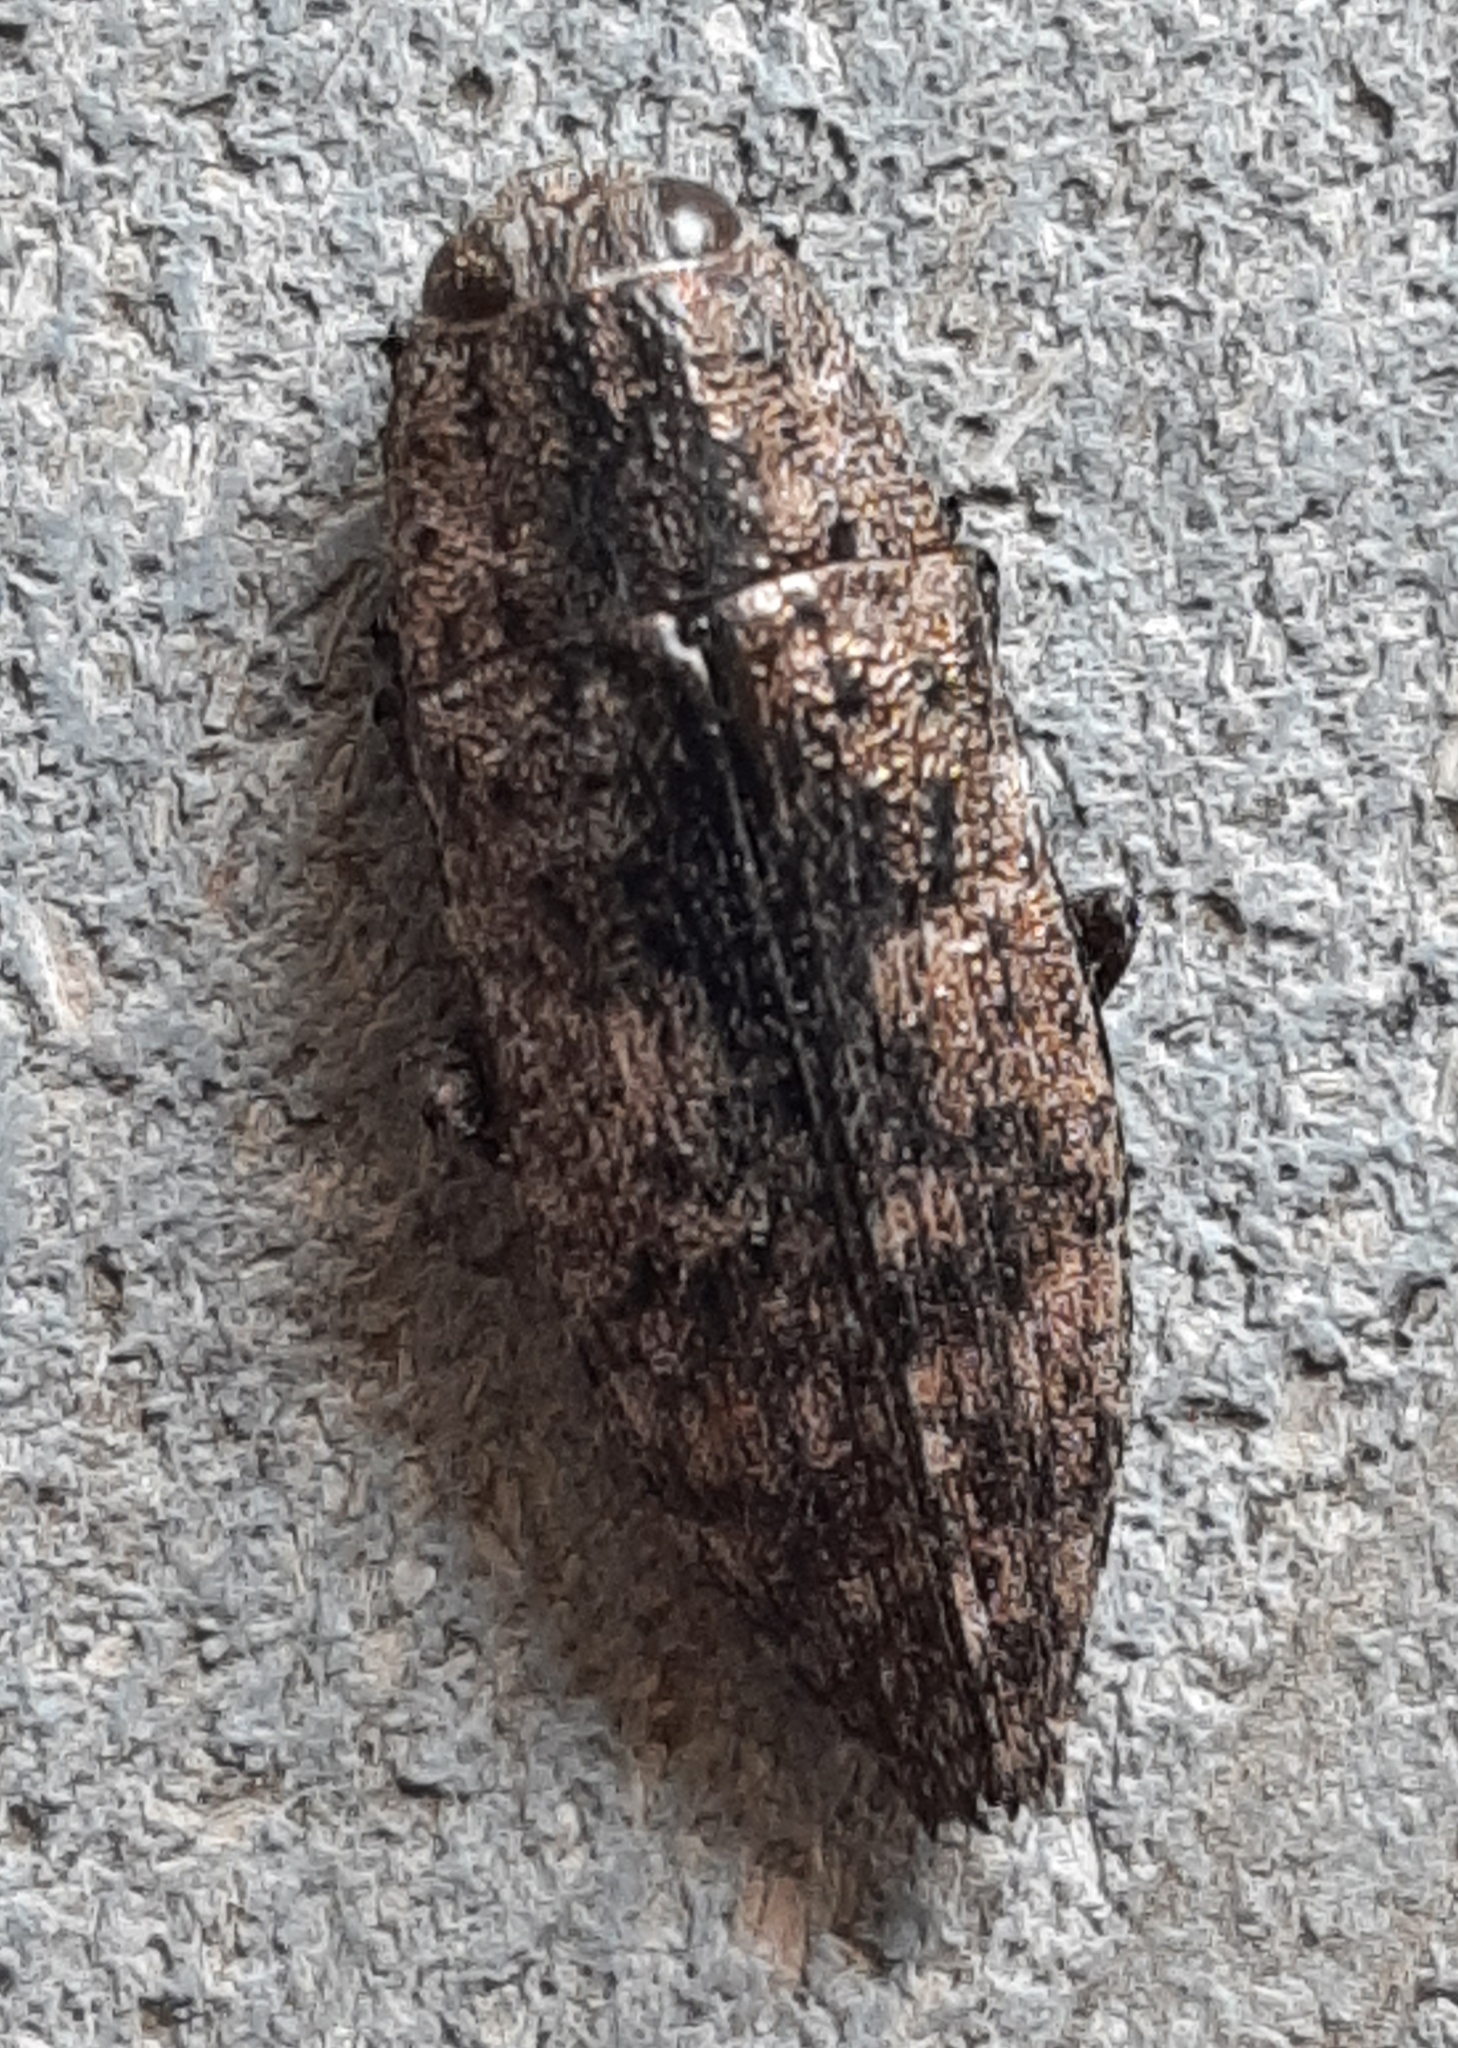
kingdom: Animalia
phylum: Arthropoda
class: Insecta
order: Coleoptera
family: Buprestidae
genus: Dicerca
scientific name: Dicerca obscura
